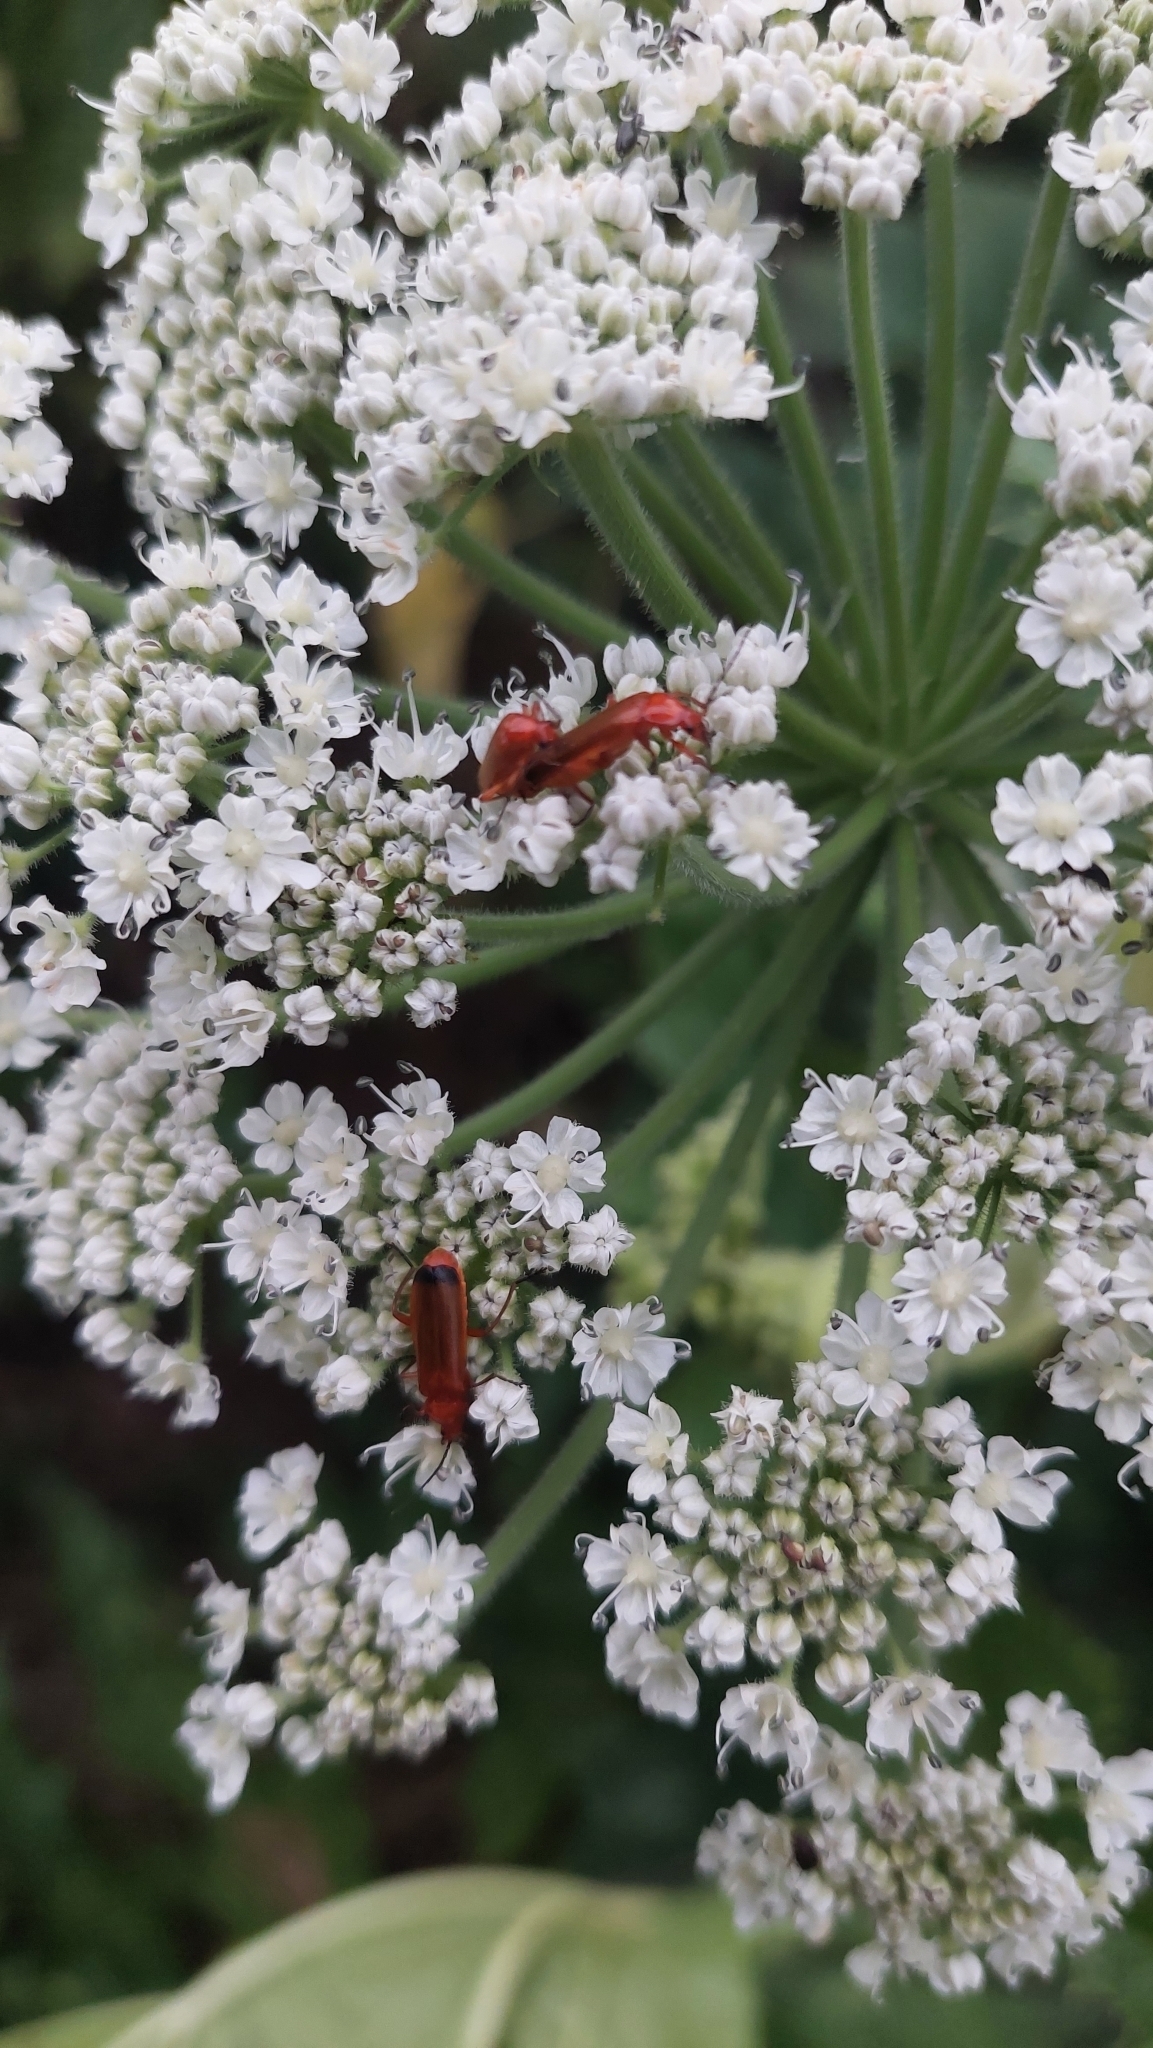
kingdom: Animalia
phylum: Arthropoda
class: Insecta
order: Coleoptera
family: Cantharidae
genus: Rhagonycha
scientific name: Rhagonycha fulva
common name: Common red soldier beetle
